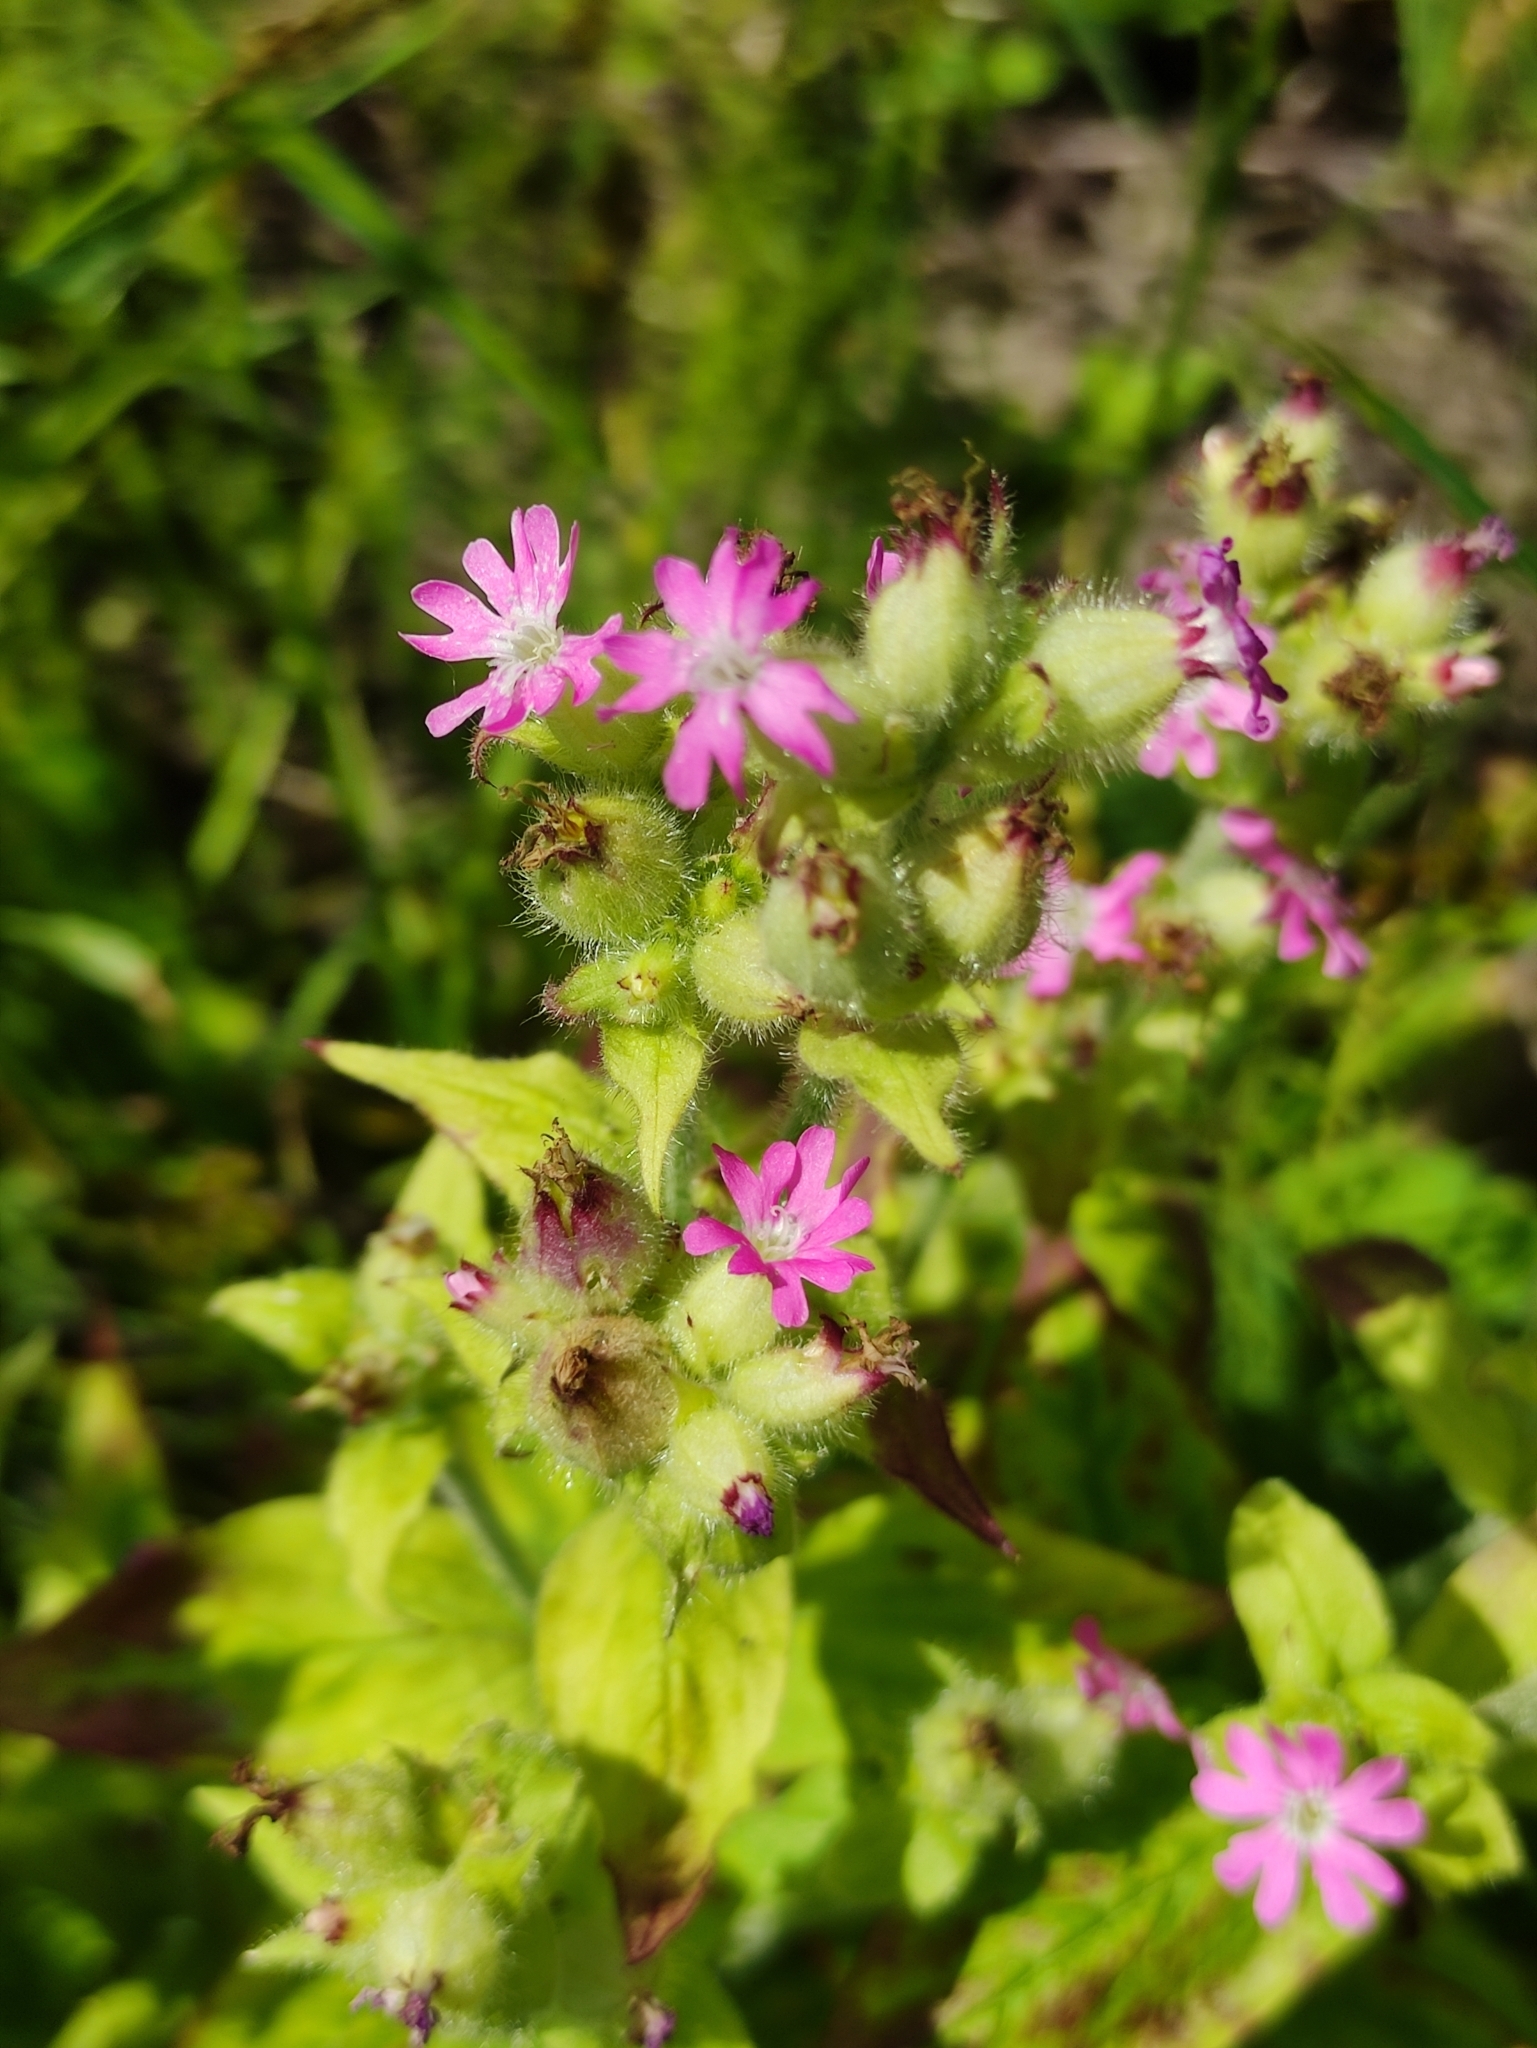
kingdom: Plantae
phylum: Tracheophyta
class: Magnoliopsida
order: Caryophyllales
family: Caryophyllaceae
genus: Silene
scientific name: Silene dioica
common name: Red campion
